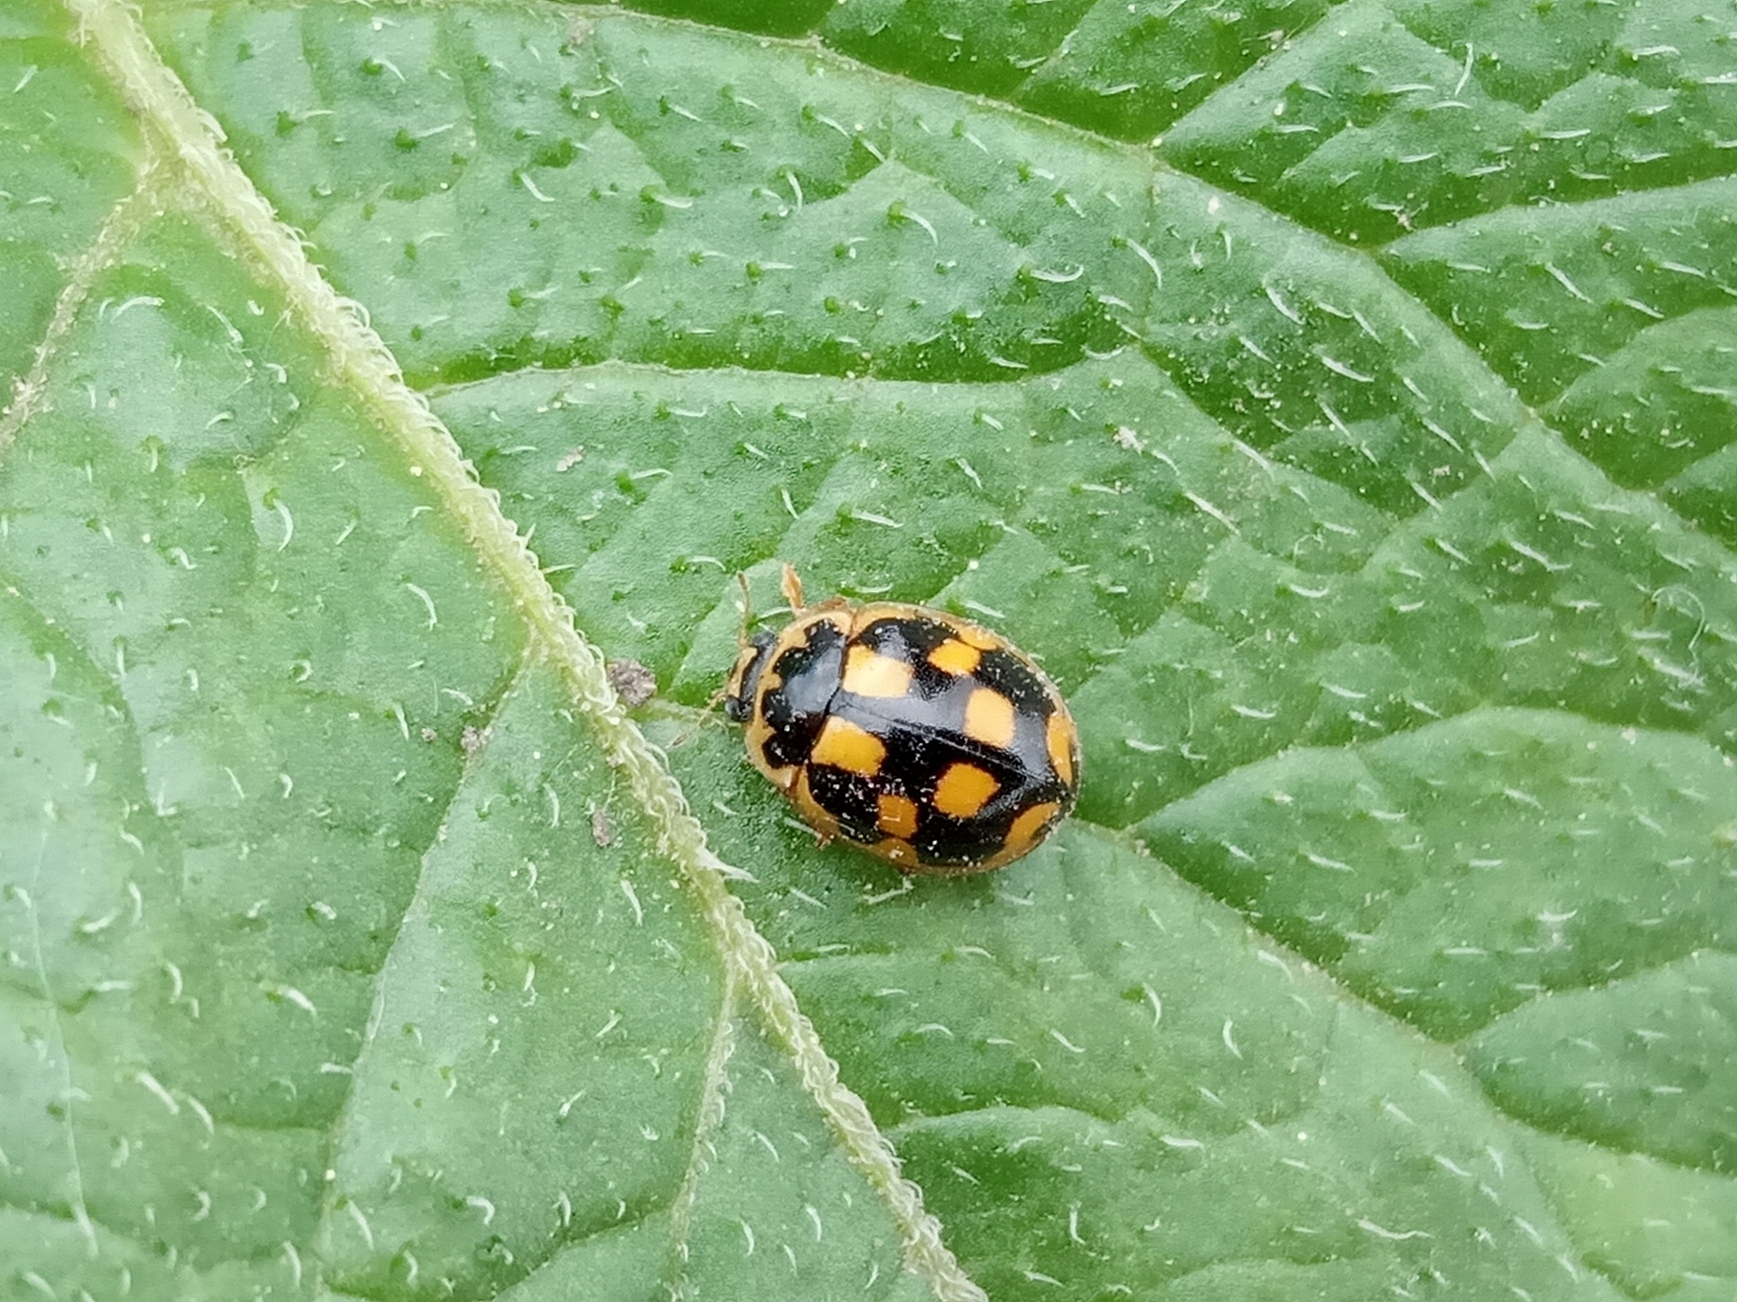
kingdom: Animalia
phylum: Arthropoda
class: Insecta
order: Coleoptera
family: Coccinellidae
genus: Propylaea
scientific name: Propylaea quatuordecimpunctata
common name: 14-spotted ladybird beetle
